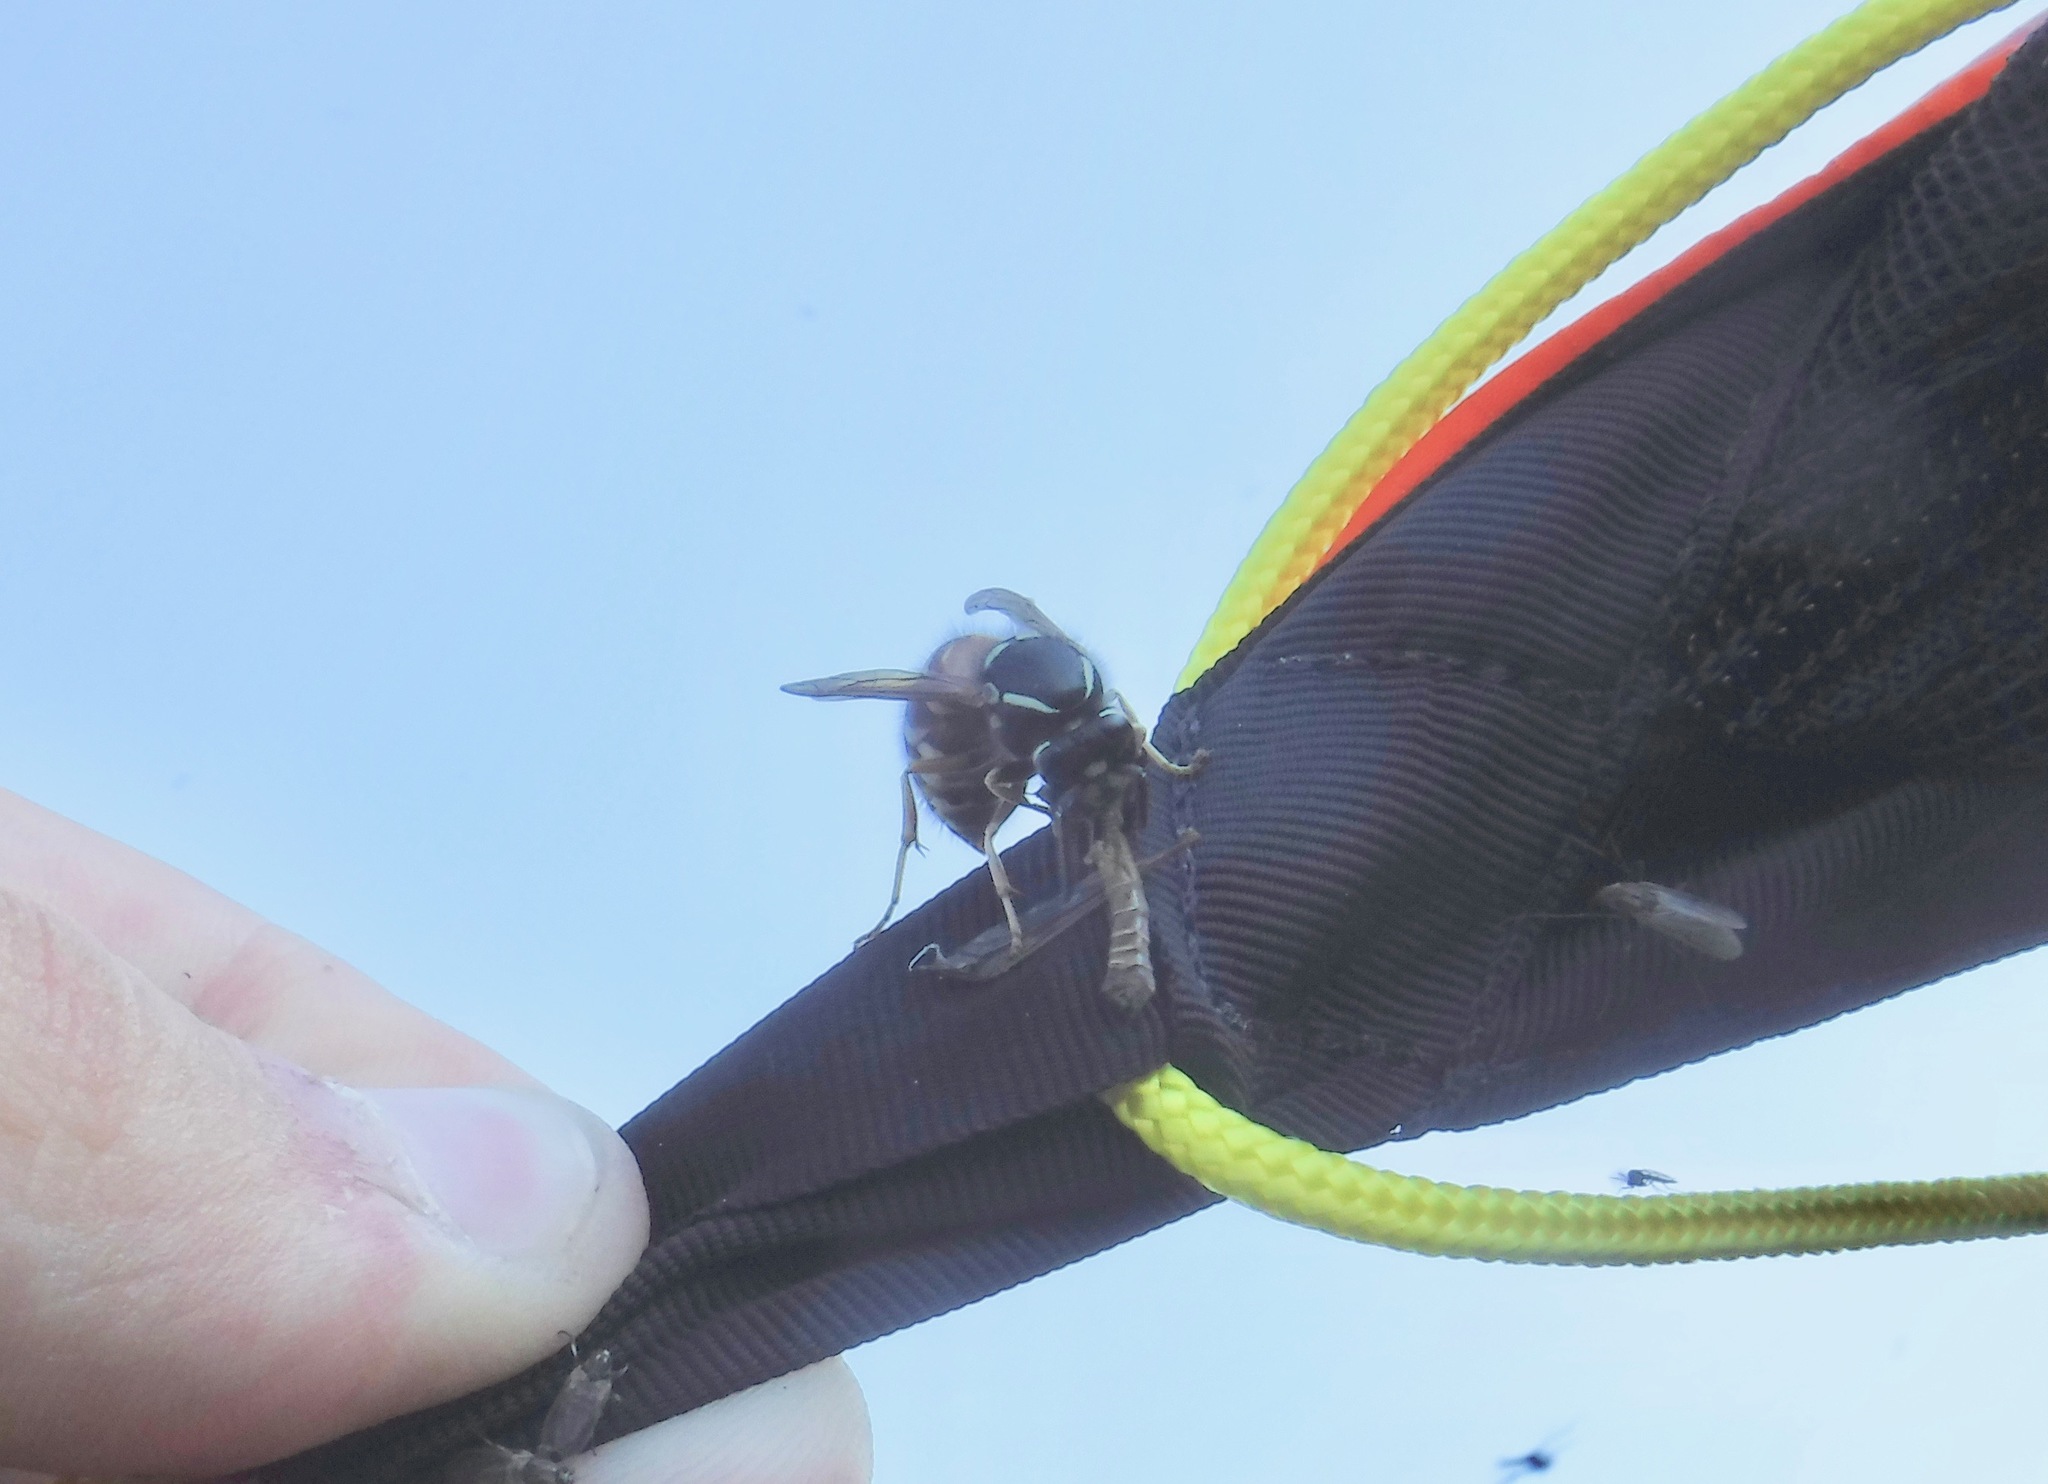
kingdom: Animalia
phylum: Arthropoda
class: Insecta
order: Hymenoptera
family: Vespidae
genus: Vespula
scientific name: Vespula intermedia
